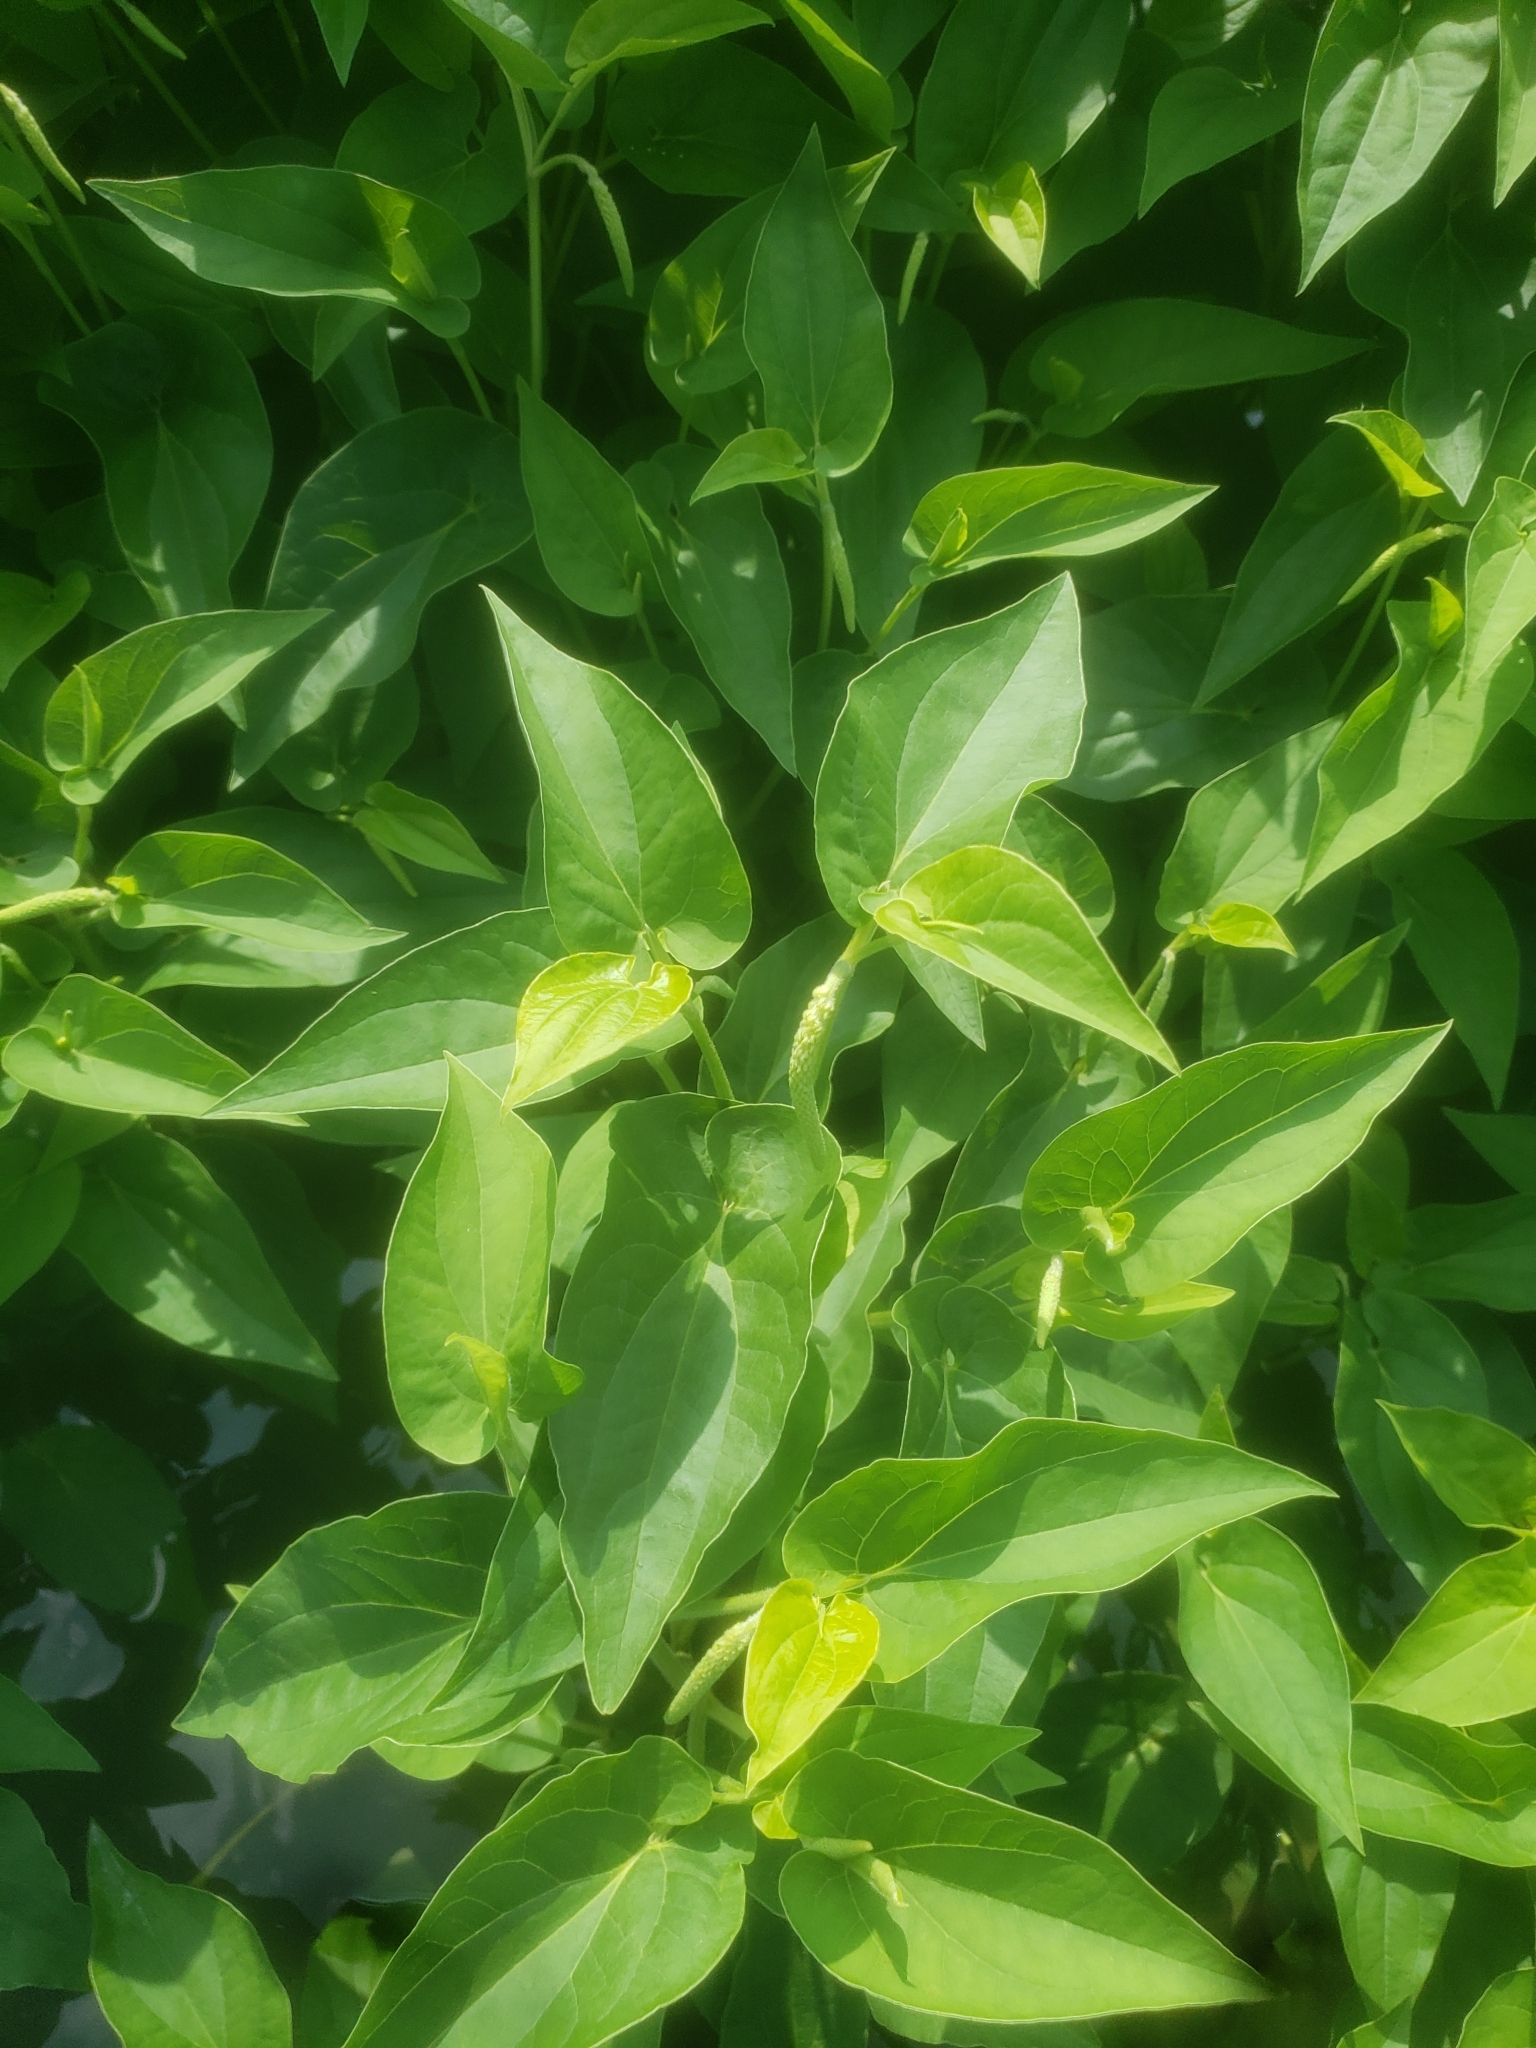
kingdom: Plantae
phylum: Tracheophyta
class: Magnoliopsida
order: Piperales
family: Saururaceae
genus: Saururus
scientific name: Saururus cernuus
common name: Lizard's-tail
